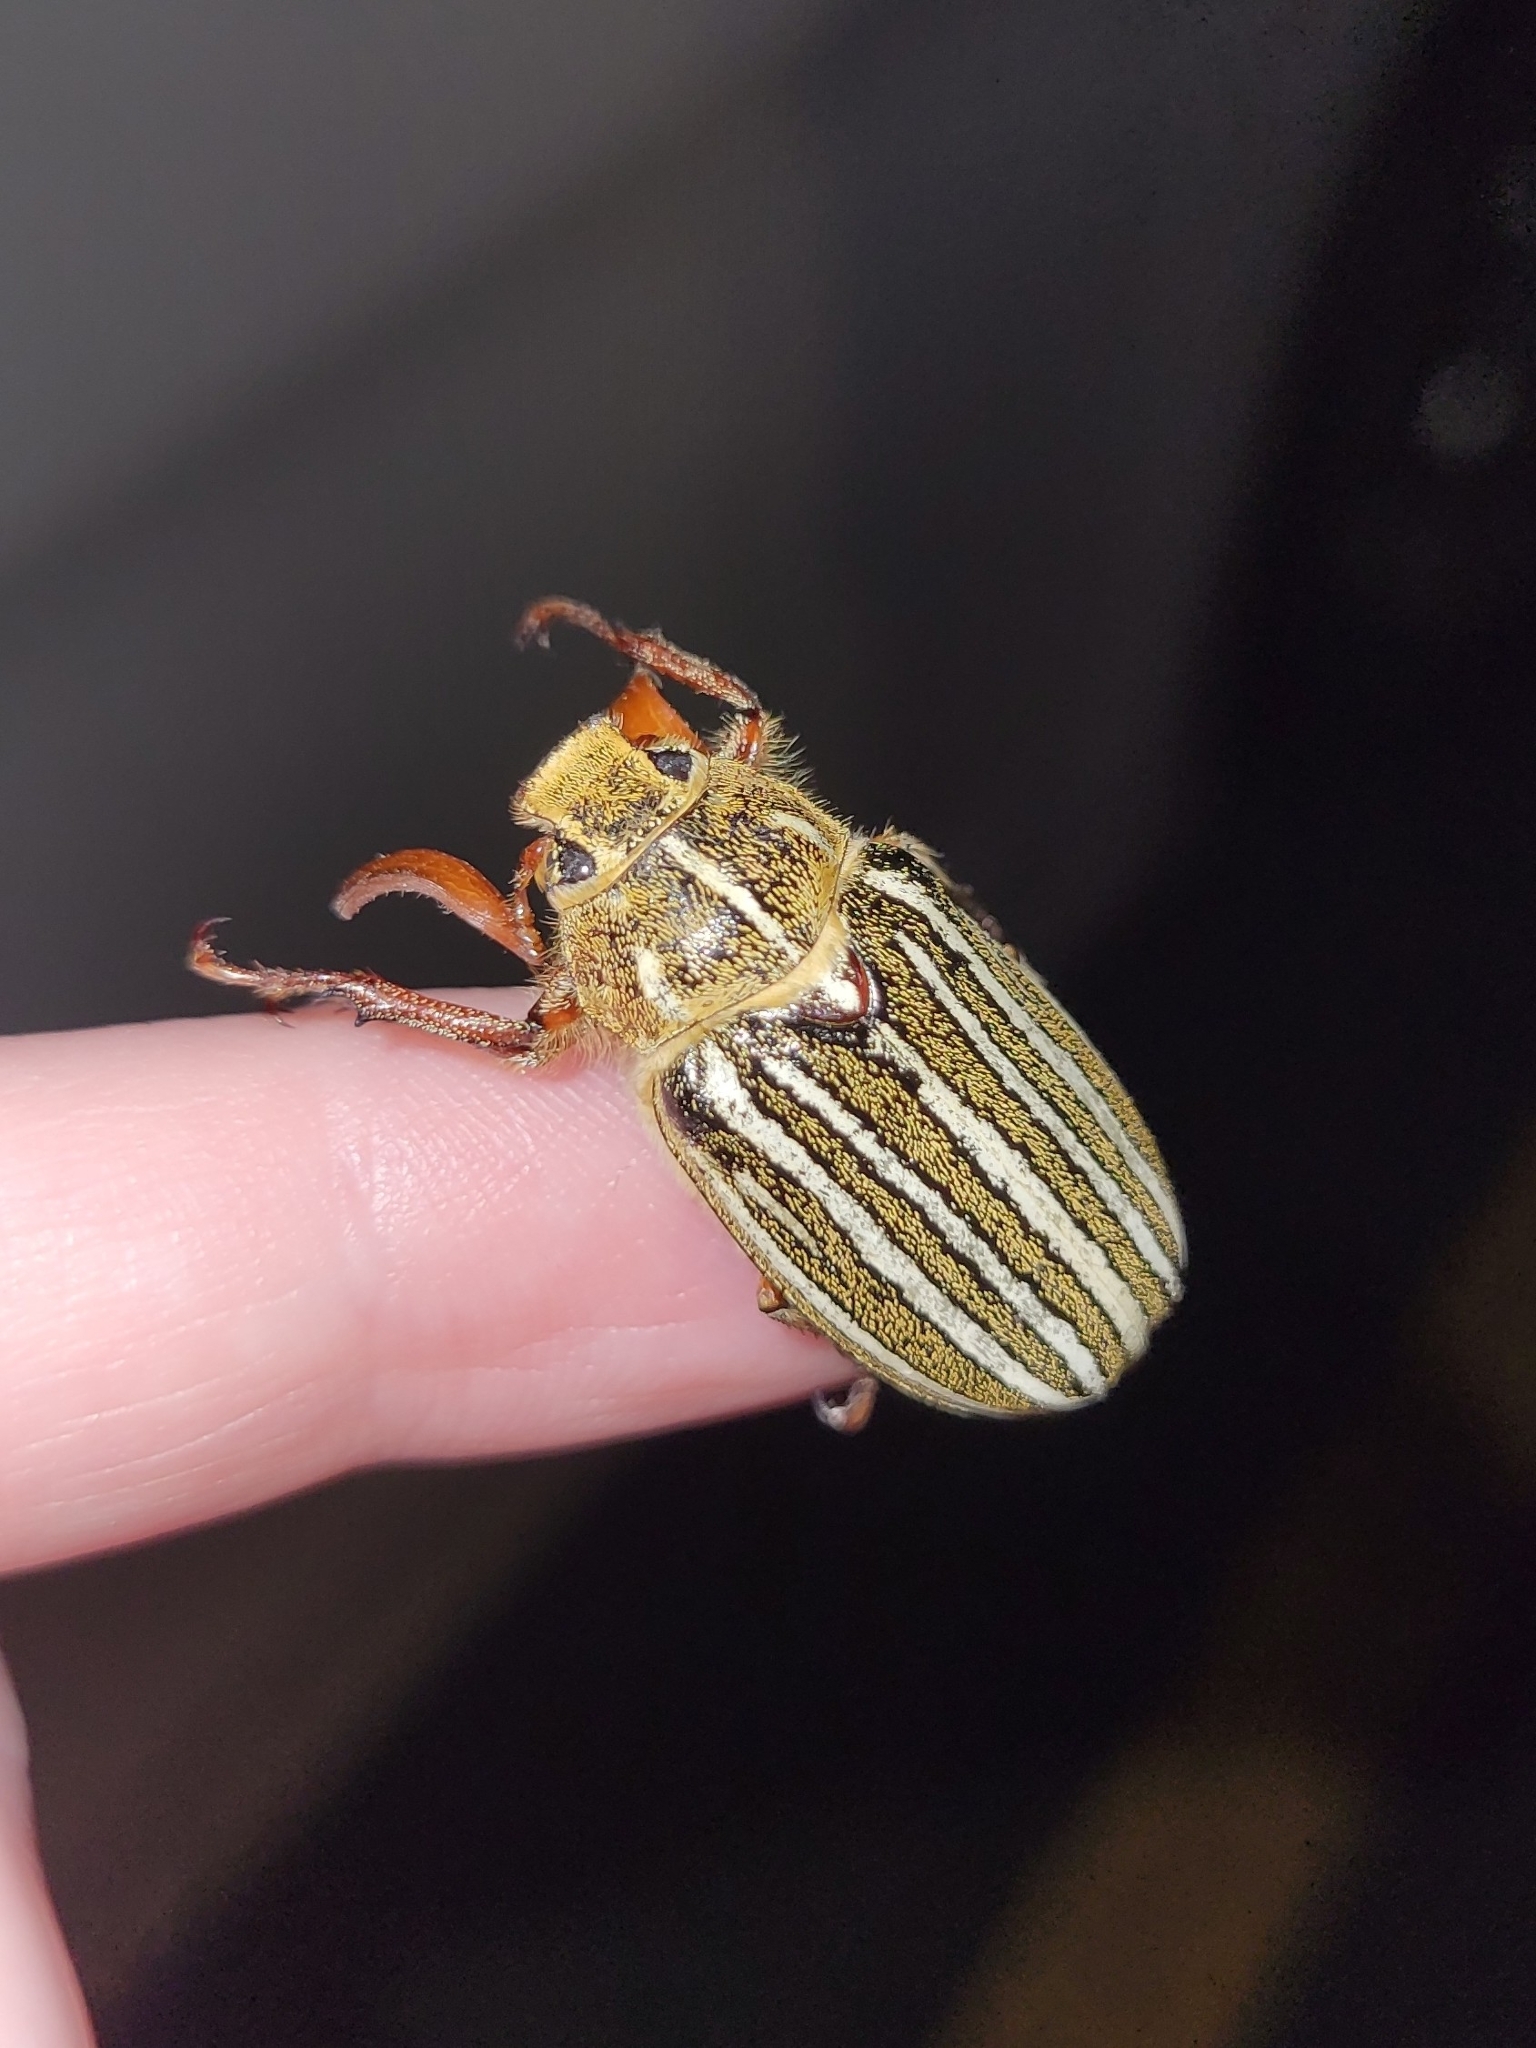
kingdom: Animalia
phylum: Arthropoda
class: Insecta
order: Coleoptera
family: Scarabaeidae
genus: Polyphylla
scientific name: Polyphylla decemlineata
